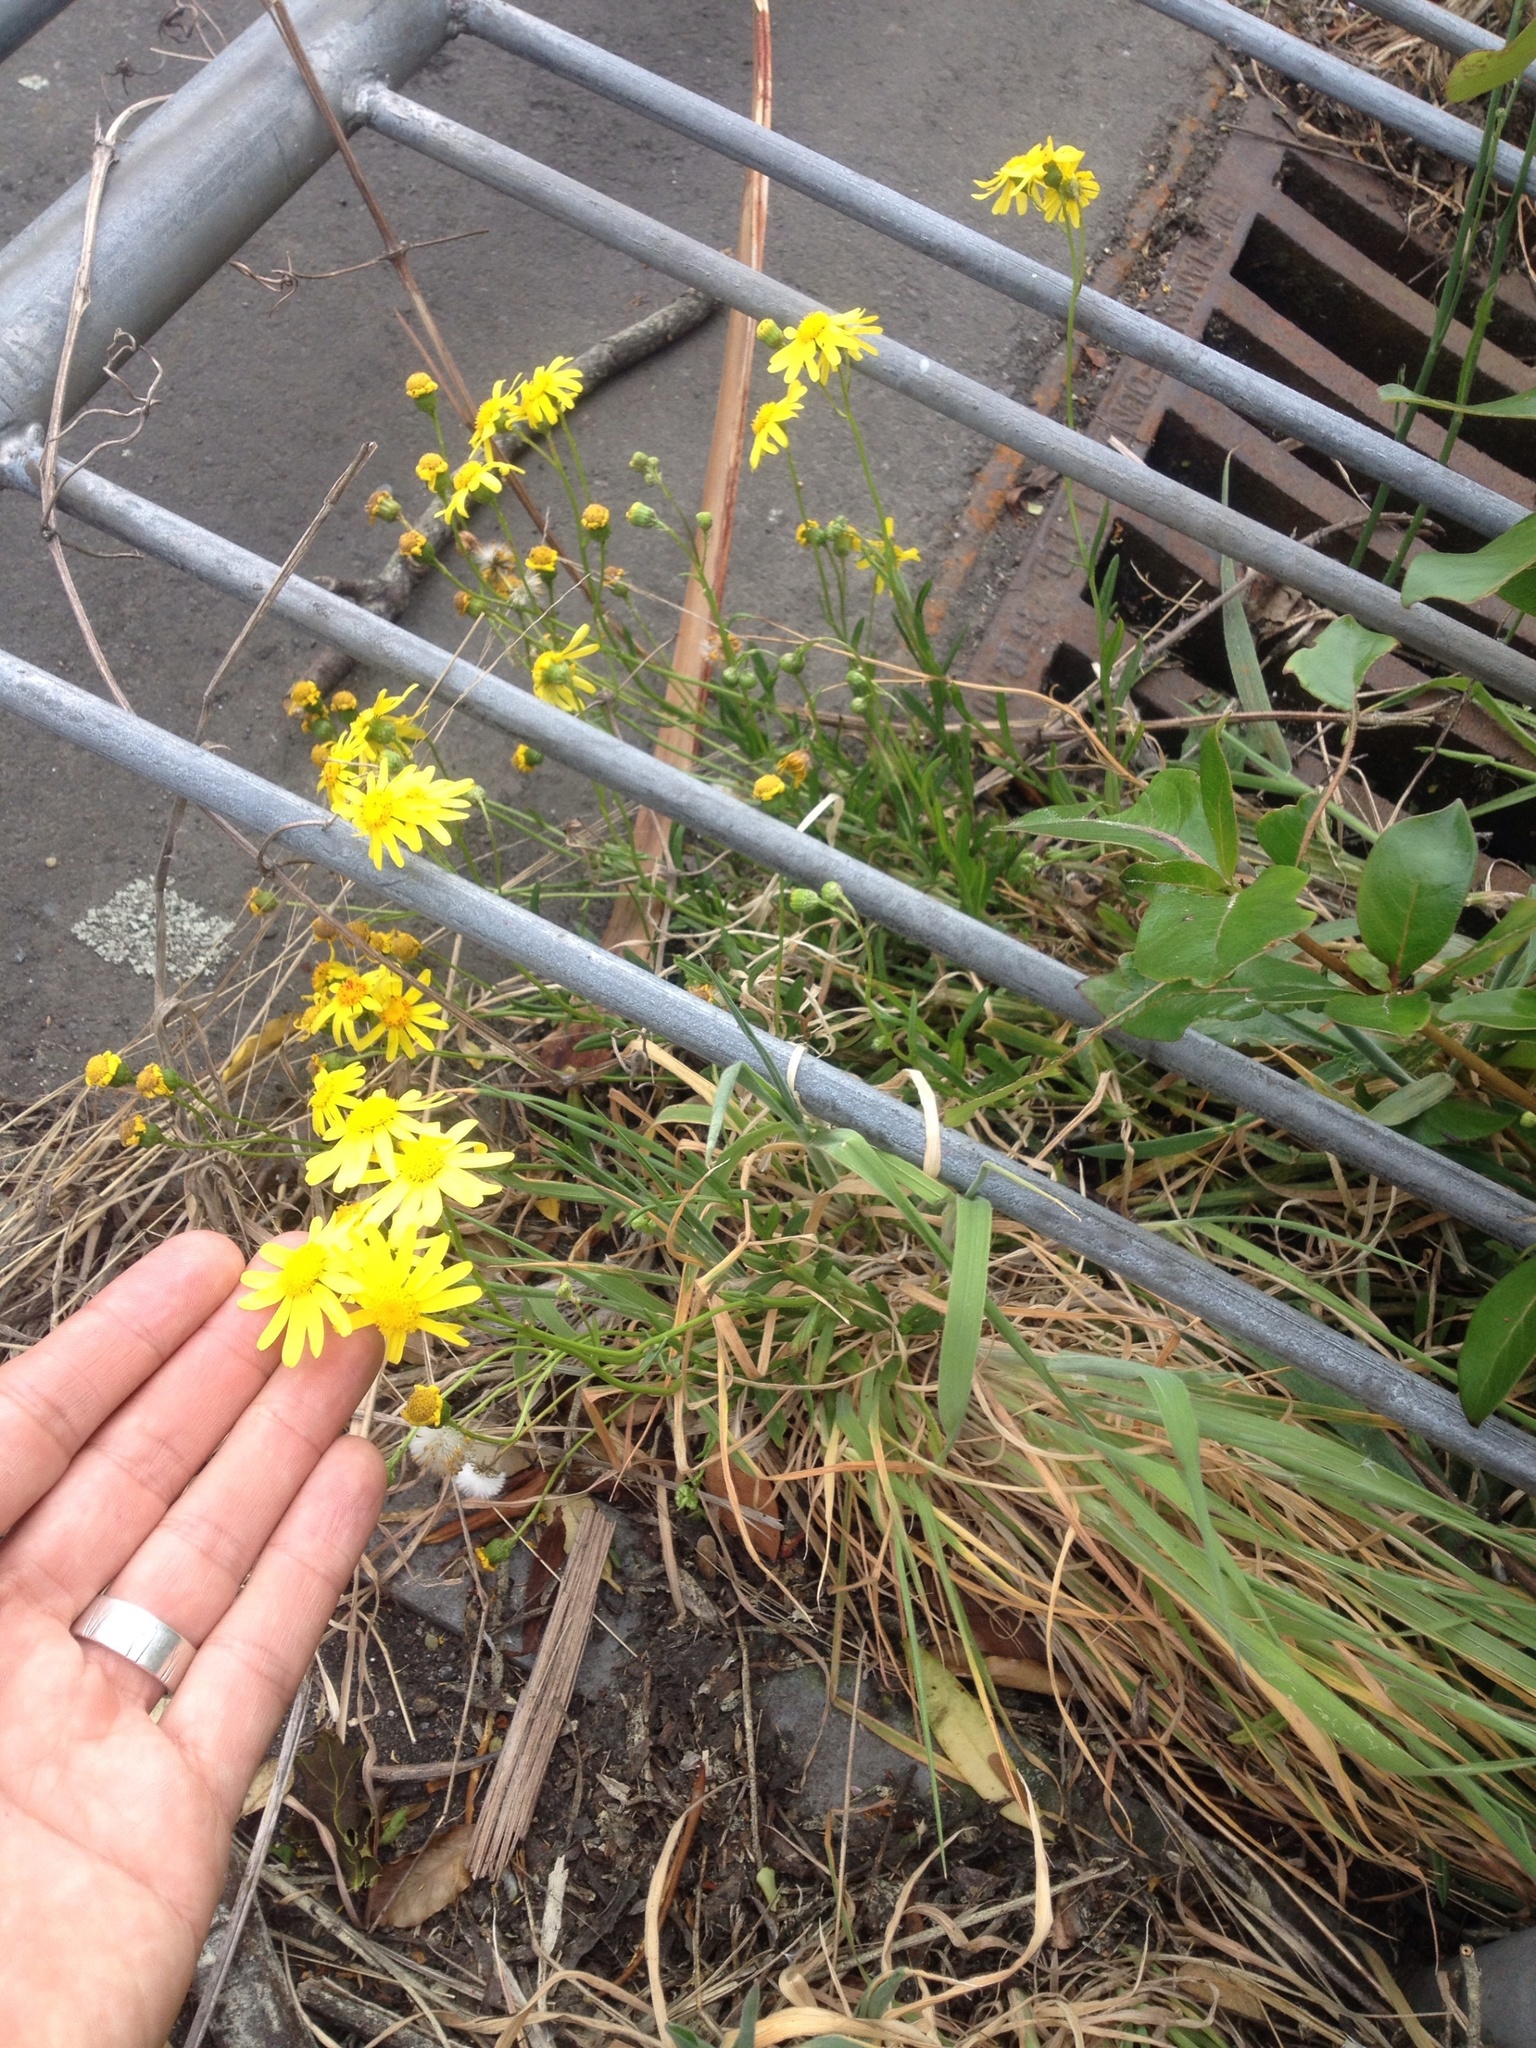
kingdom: Plantae
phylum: Tracheophyta
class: Magnoliopsida
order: Asterales
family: Asteraceae
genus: Senecio
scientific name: Senecio skirrhodon
